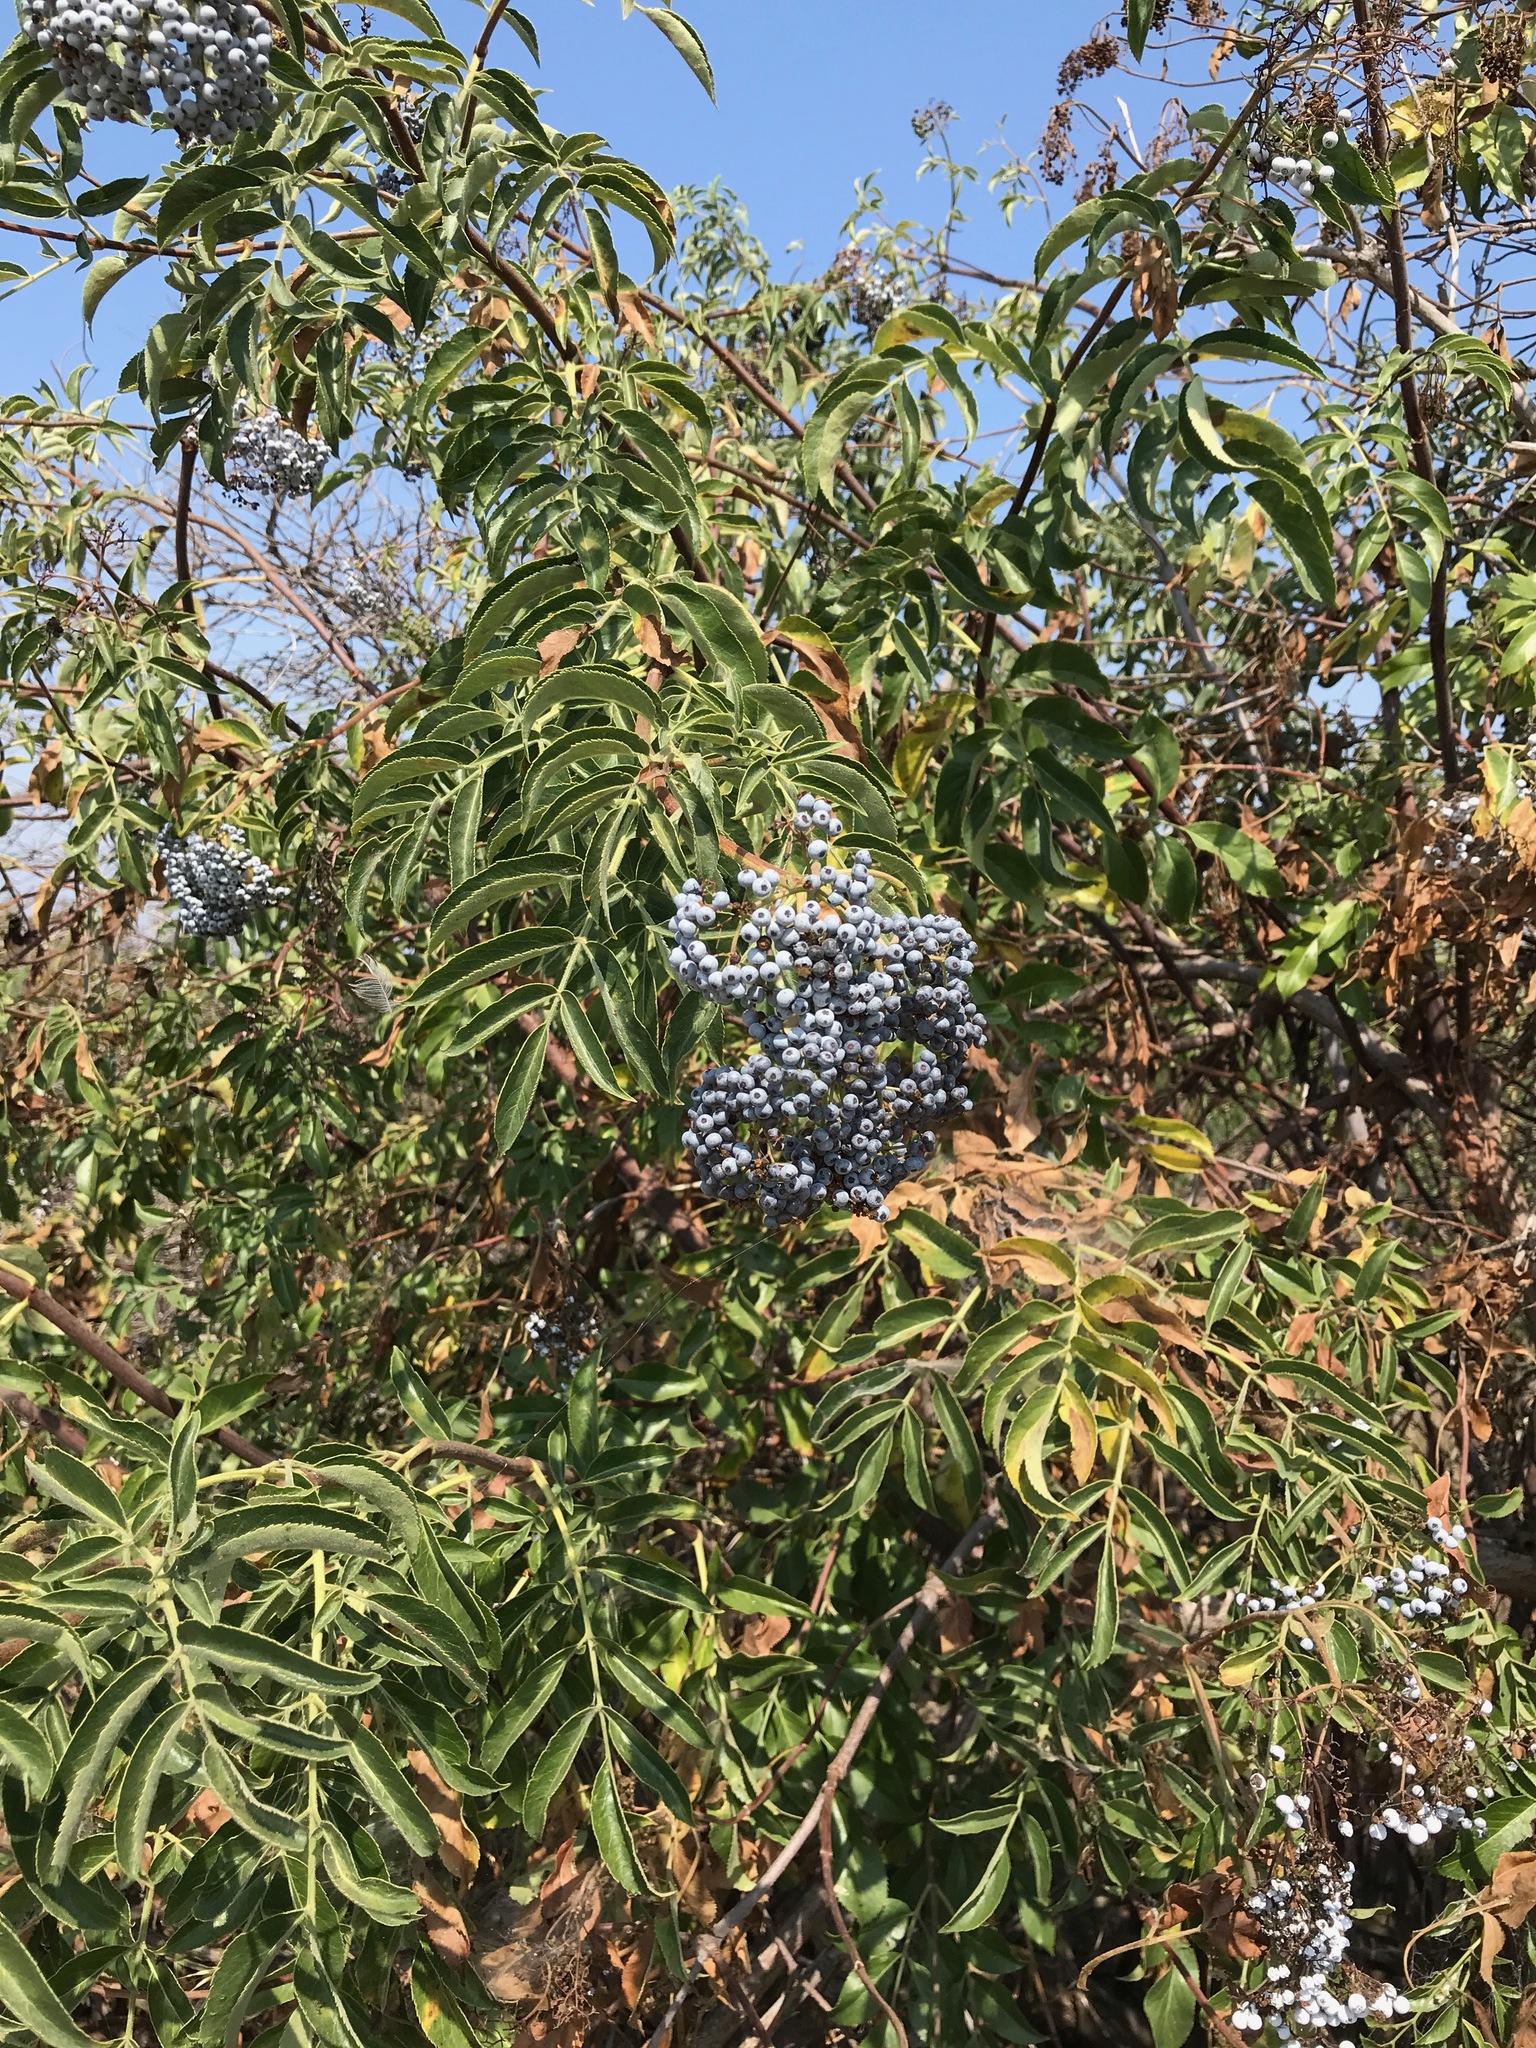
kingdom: Plantae
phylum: Tracheophyta
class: Magnoliopsida
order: Dipsacales
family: Viburnaceae
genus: Sambucus
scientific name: Sambucus cerulea
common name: Blue elder
